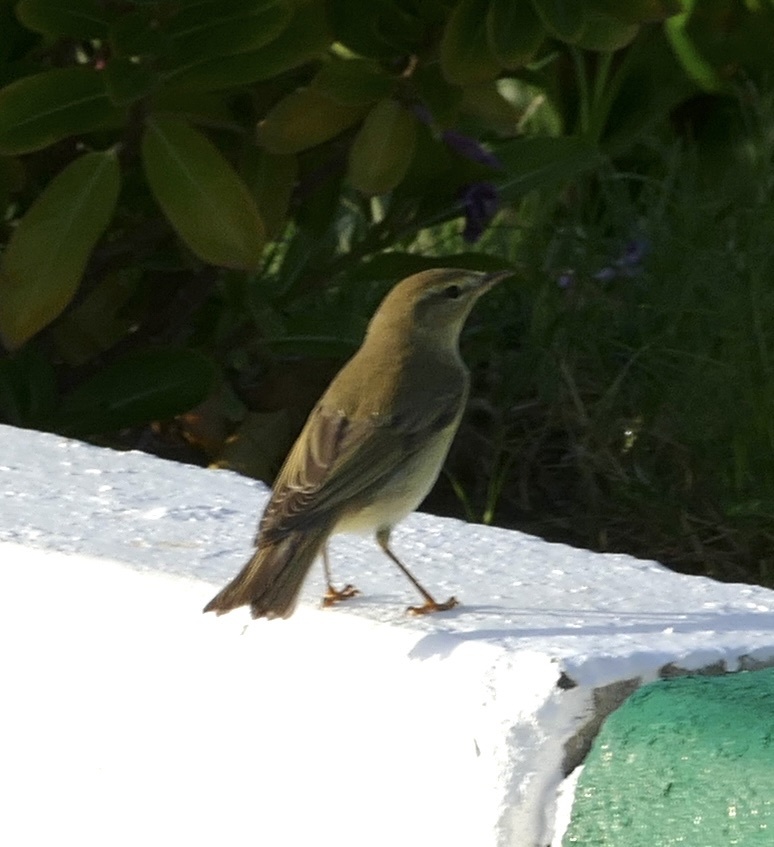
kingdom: Animalia
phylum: Chordata
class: Aves
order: Passeriformes
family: Phylloscopidae
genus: Phylloscopus
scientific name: Phylloscopus trochilus
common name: Willow warbler
